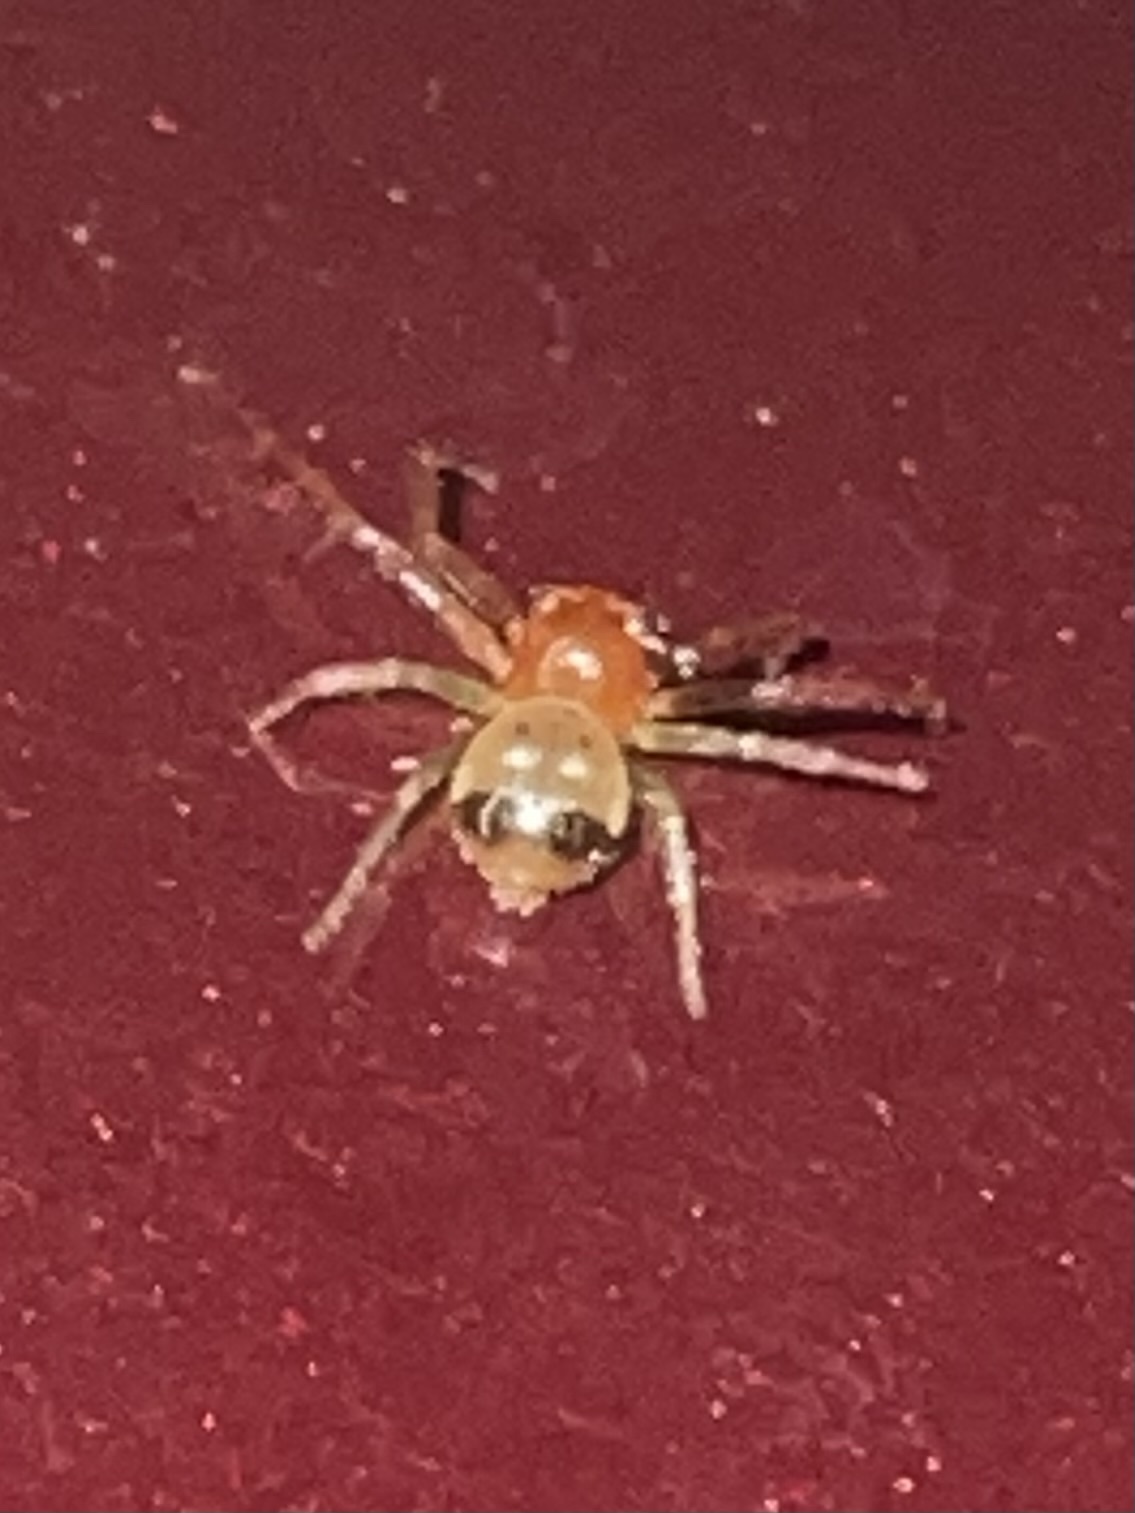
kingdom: Animalia
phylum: Arthropoda
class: Arachnida
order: Araneae
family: Thomisidae
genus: Synema
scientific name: Synema parvulum
